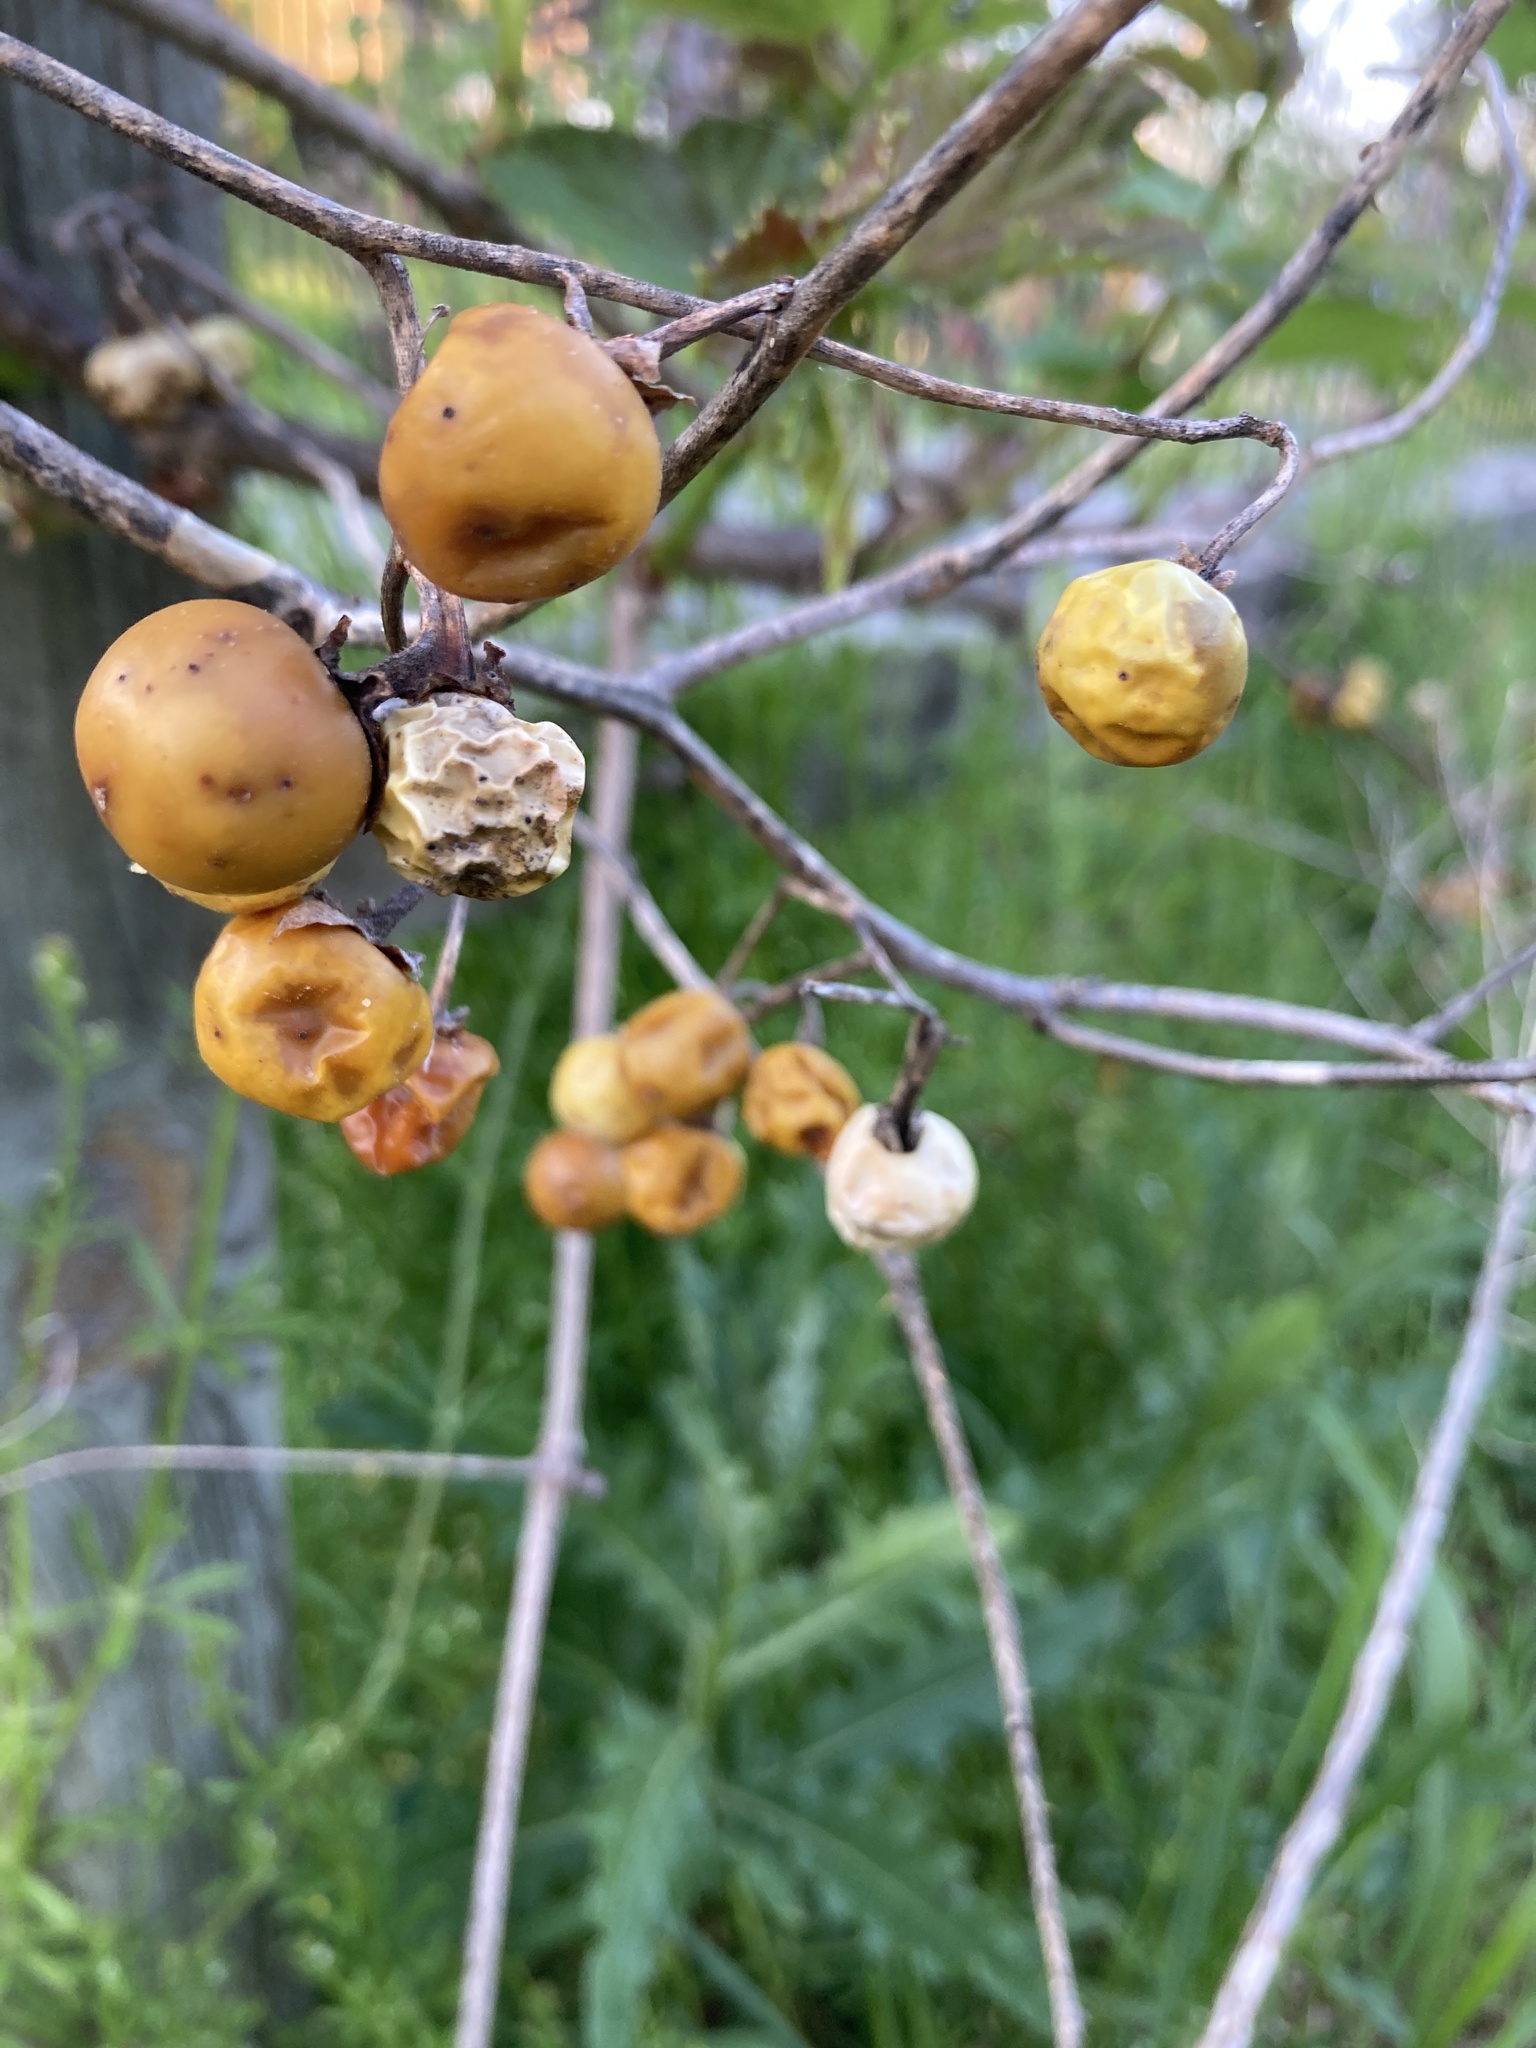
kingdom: Plantae
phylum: Tracheophyta
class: Magnoliopsida
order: Solanales
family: Solanaceae
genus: Solanum
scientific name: Solanum carolinense
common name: Horse-nettle
